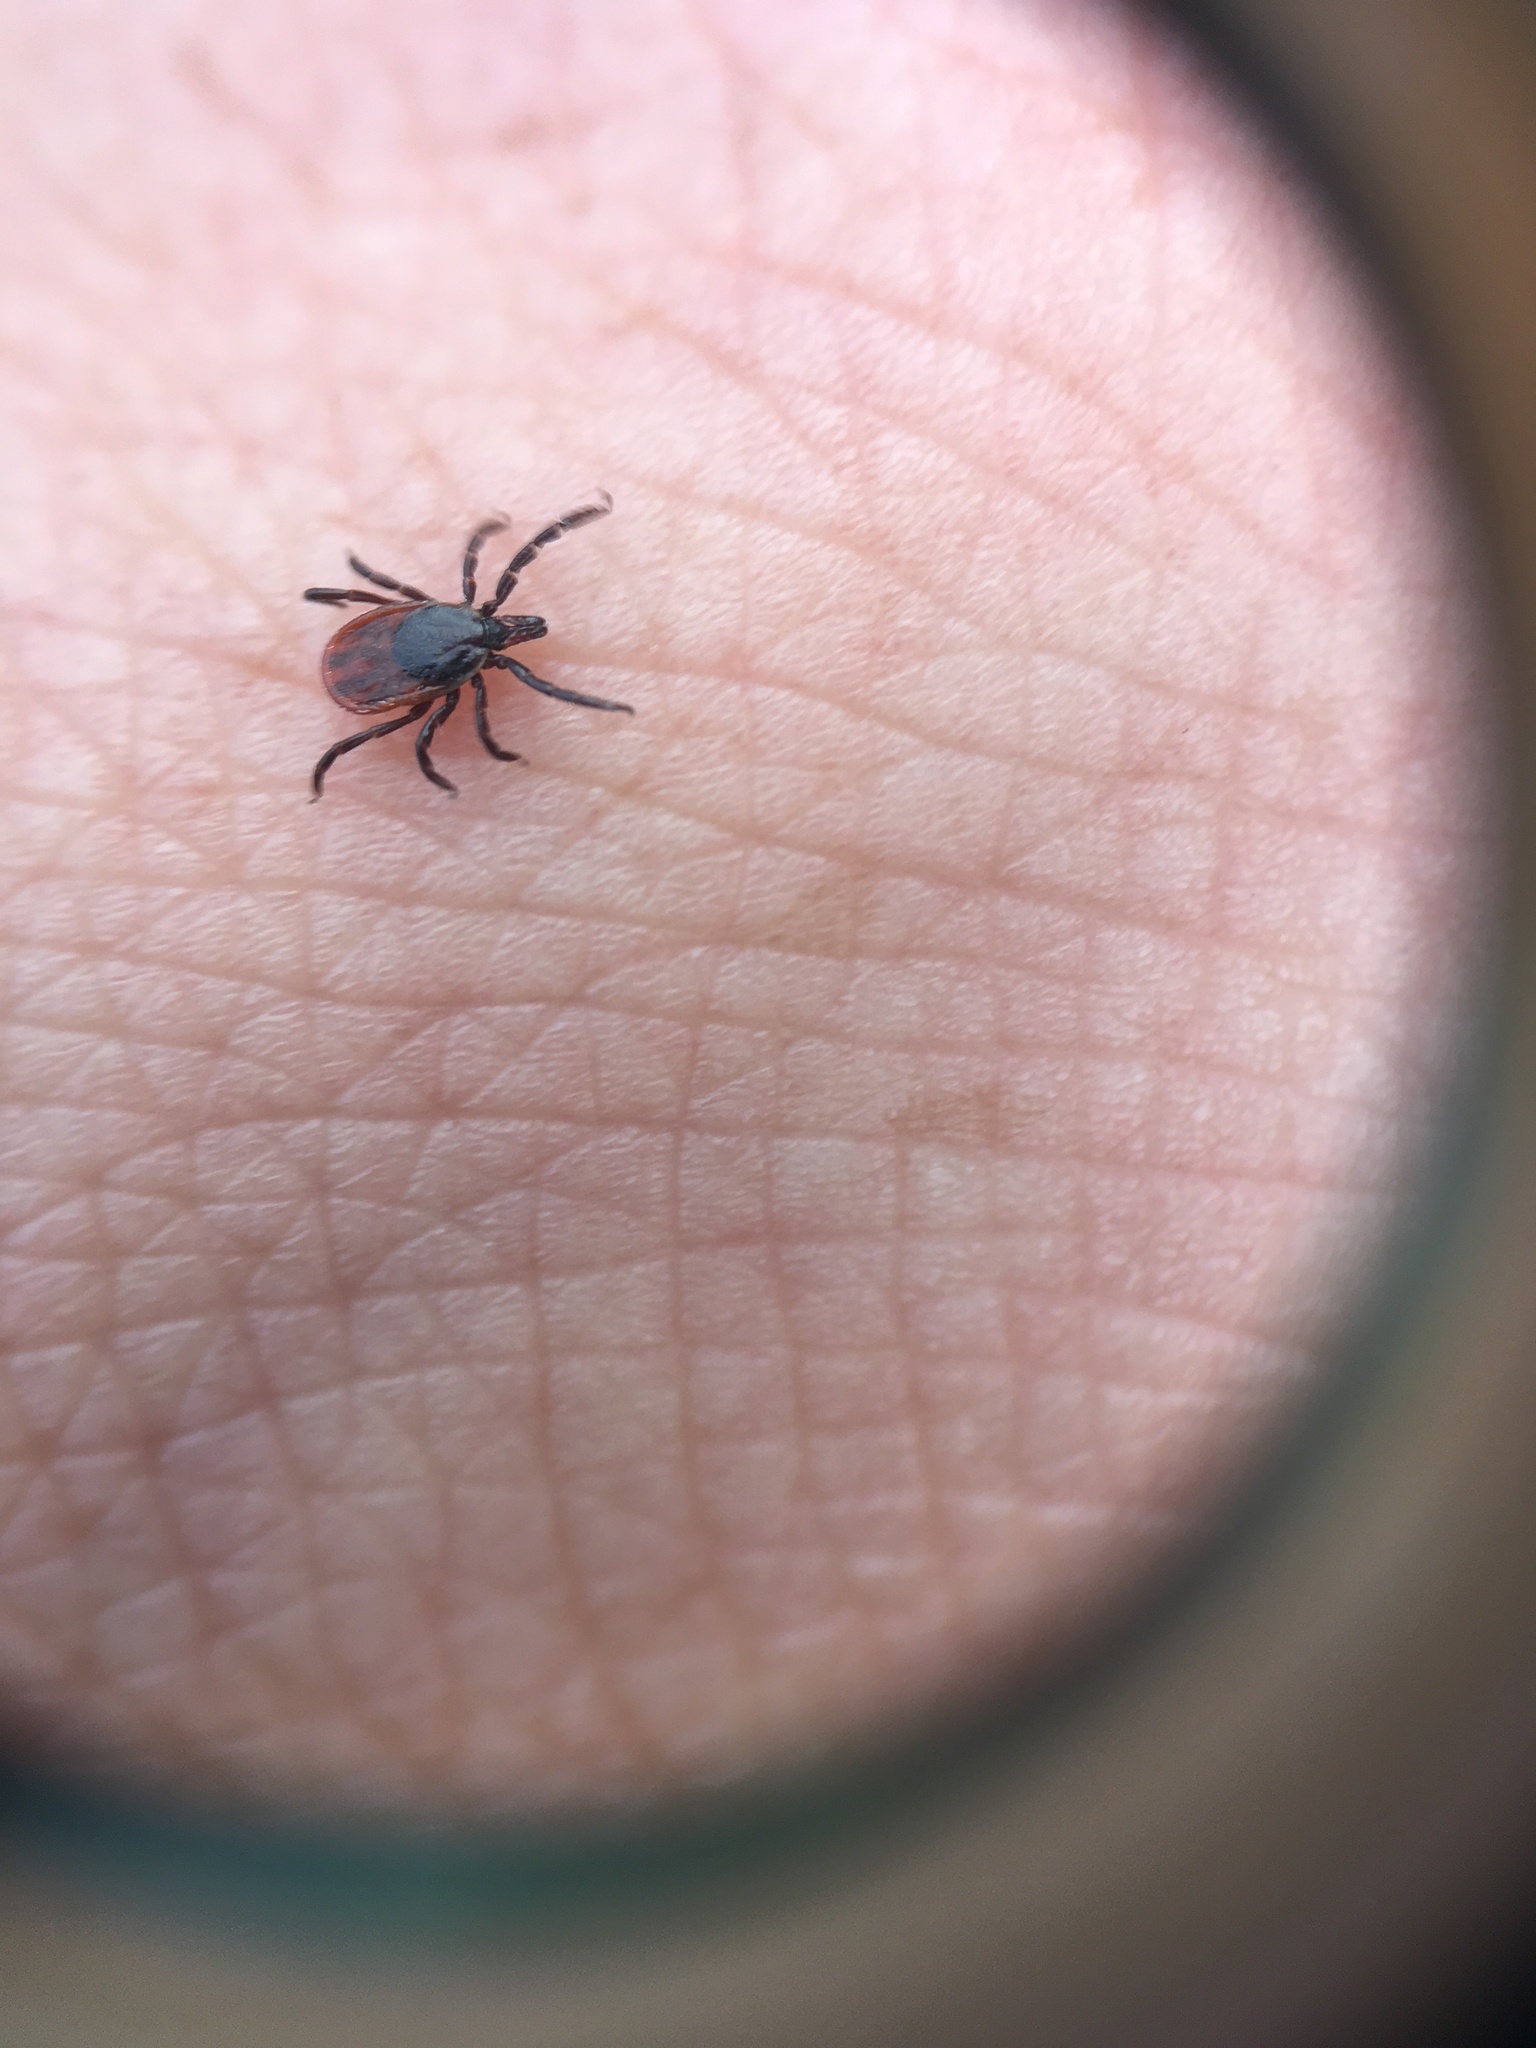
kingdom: Animalia
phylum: Arthropoda
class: Arachnida
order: Ixodida
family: Ixodidae
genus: Ixodes
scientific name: Ixodes scapularis
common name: Black legged tick
